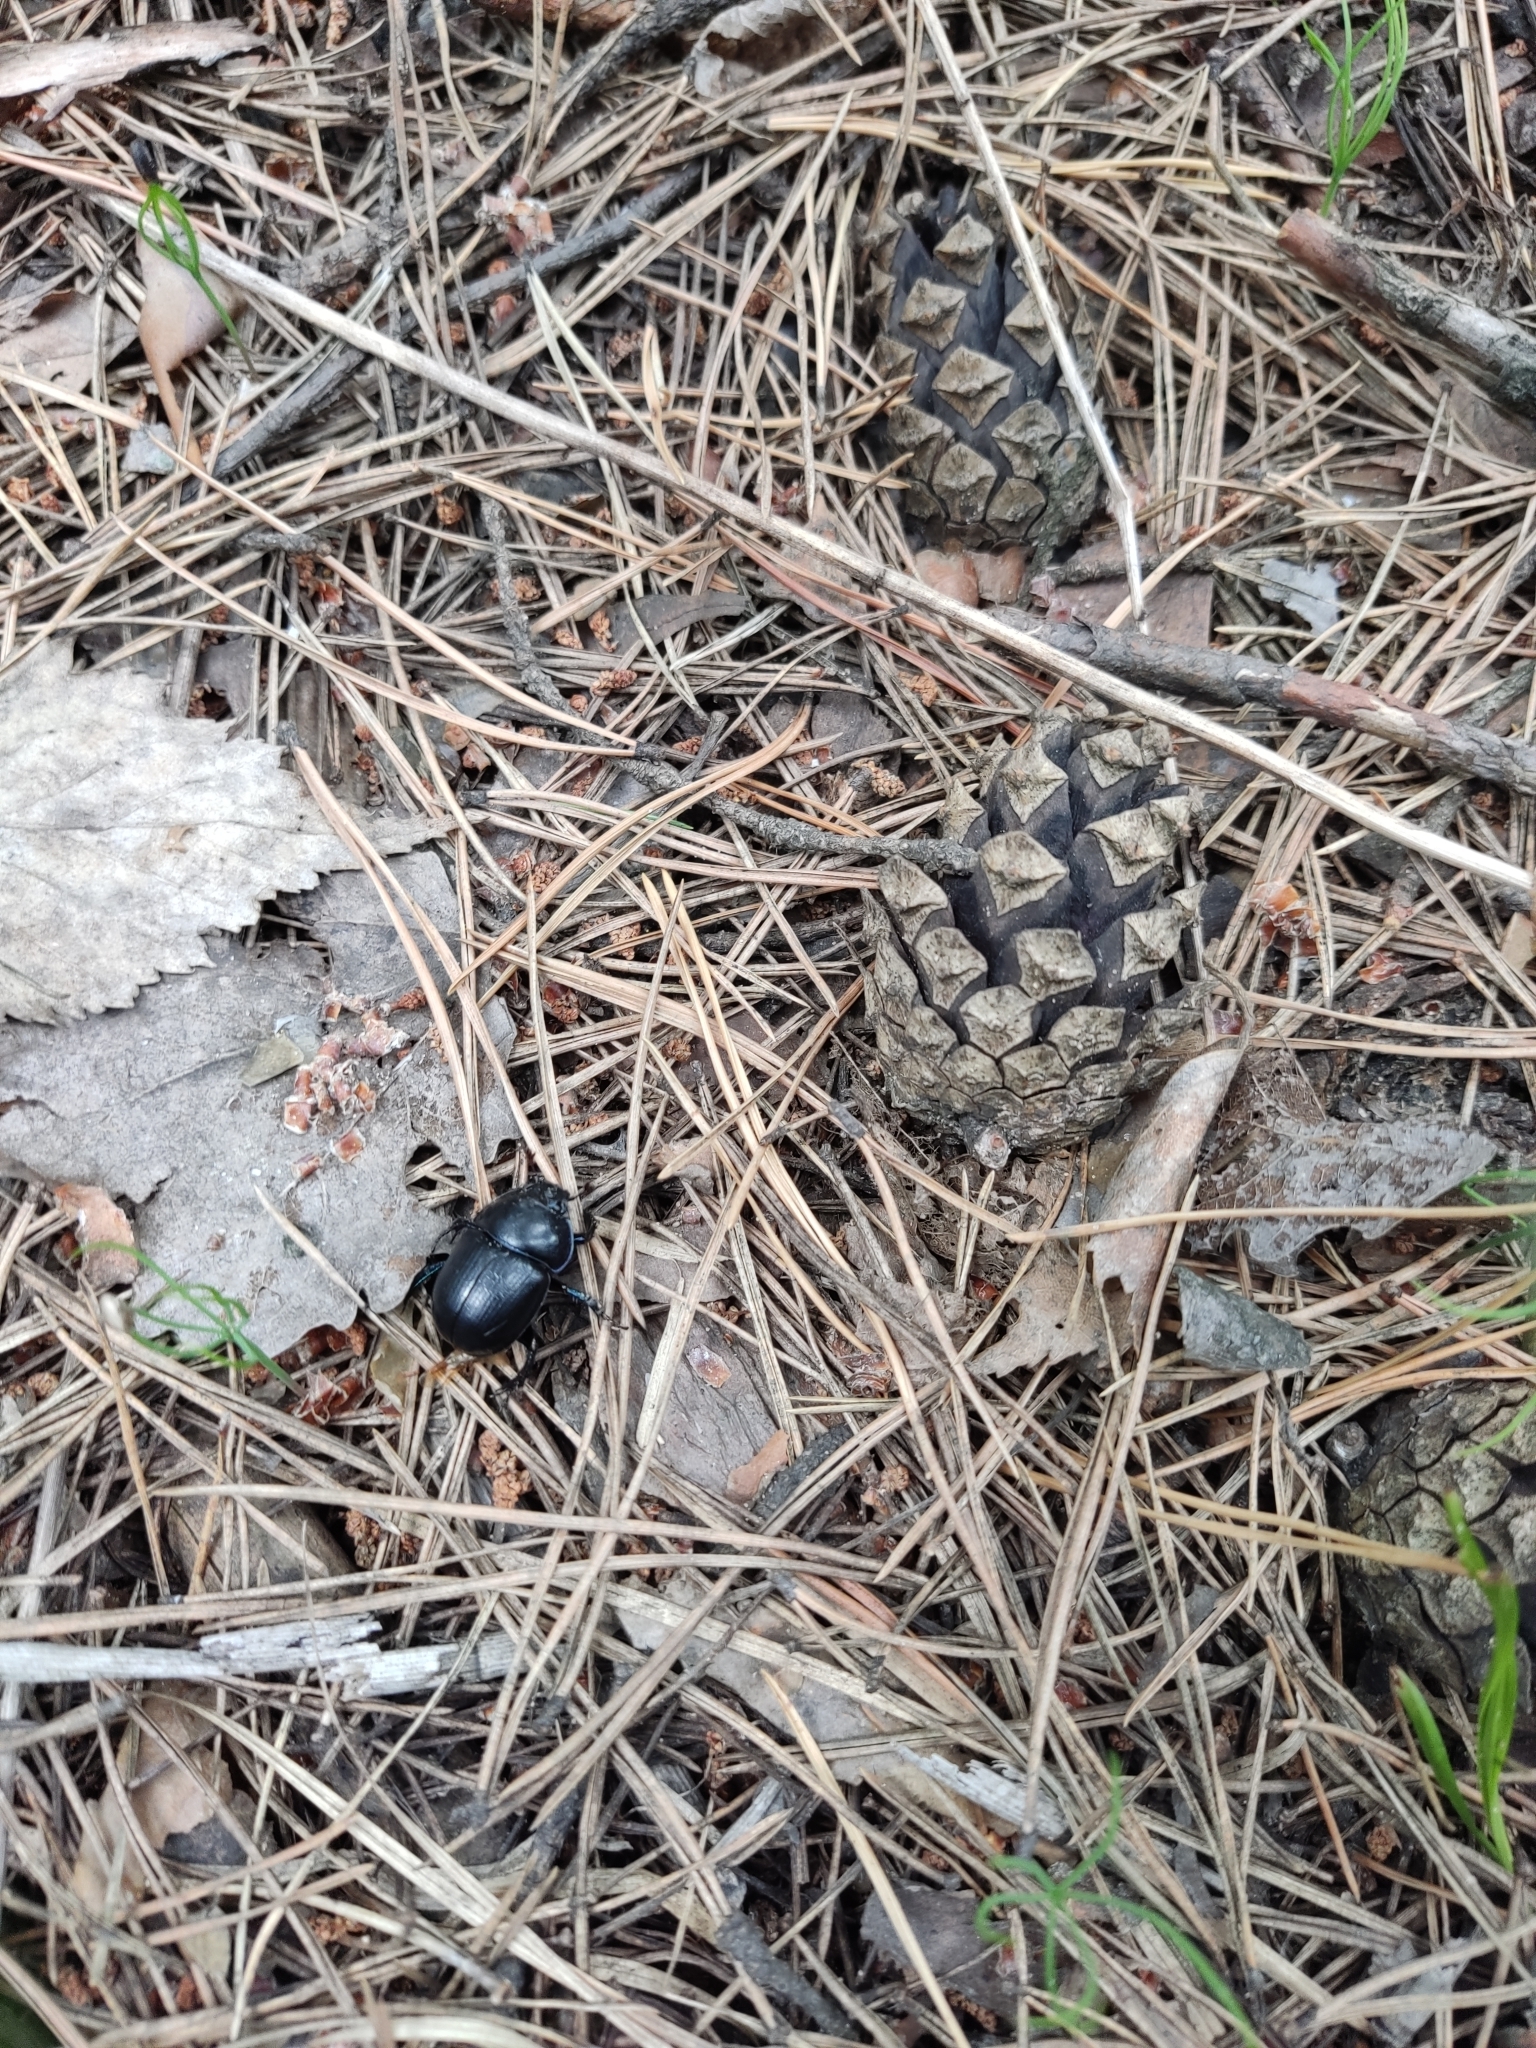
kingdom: Animalia
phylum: Arthropoda
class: Insecta
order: Coleoptera
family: Geotrupidae
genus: Anoplotrupes
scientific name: Anoplotrupes stercorosus
